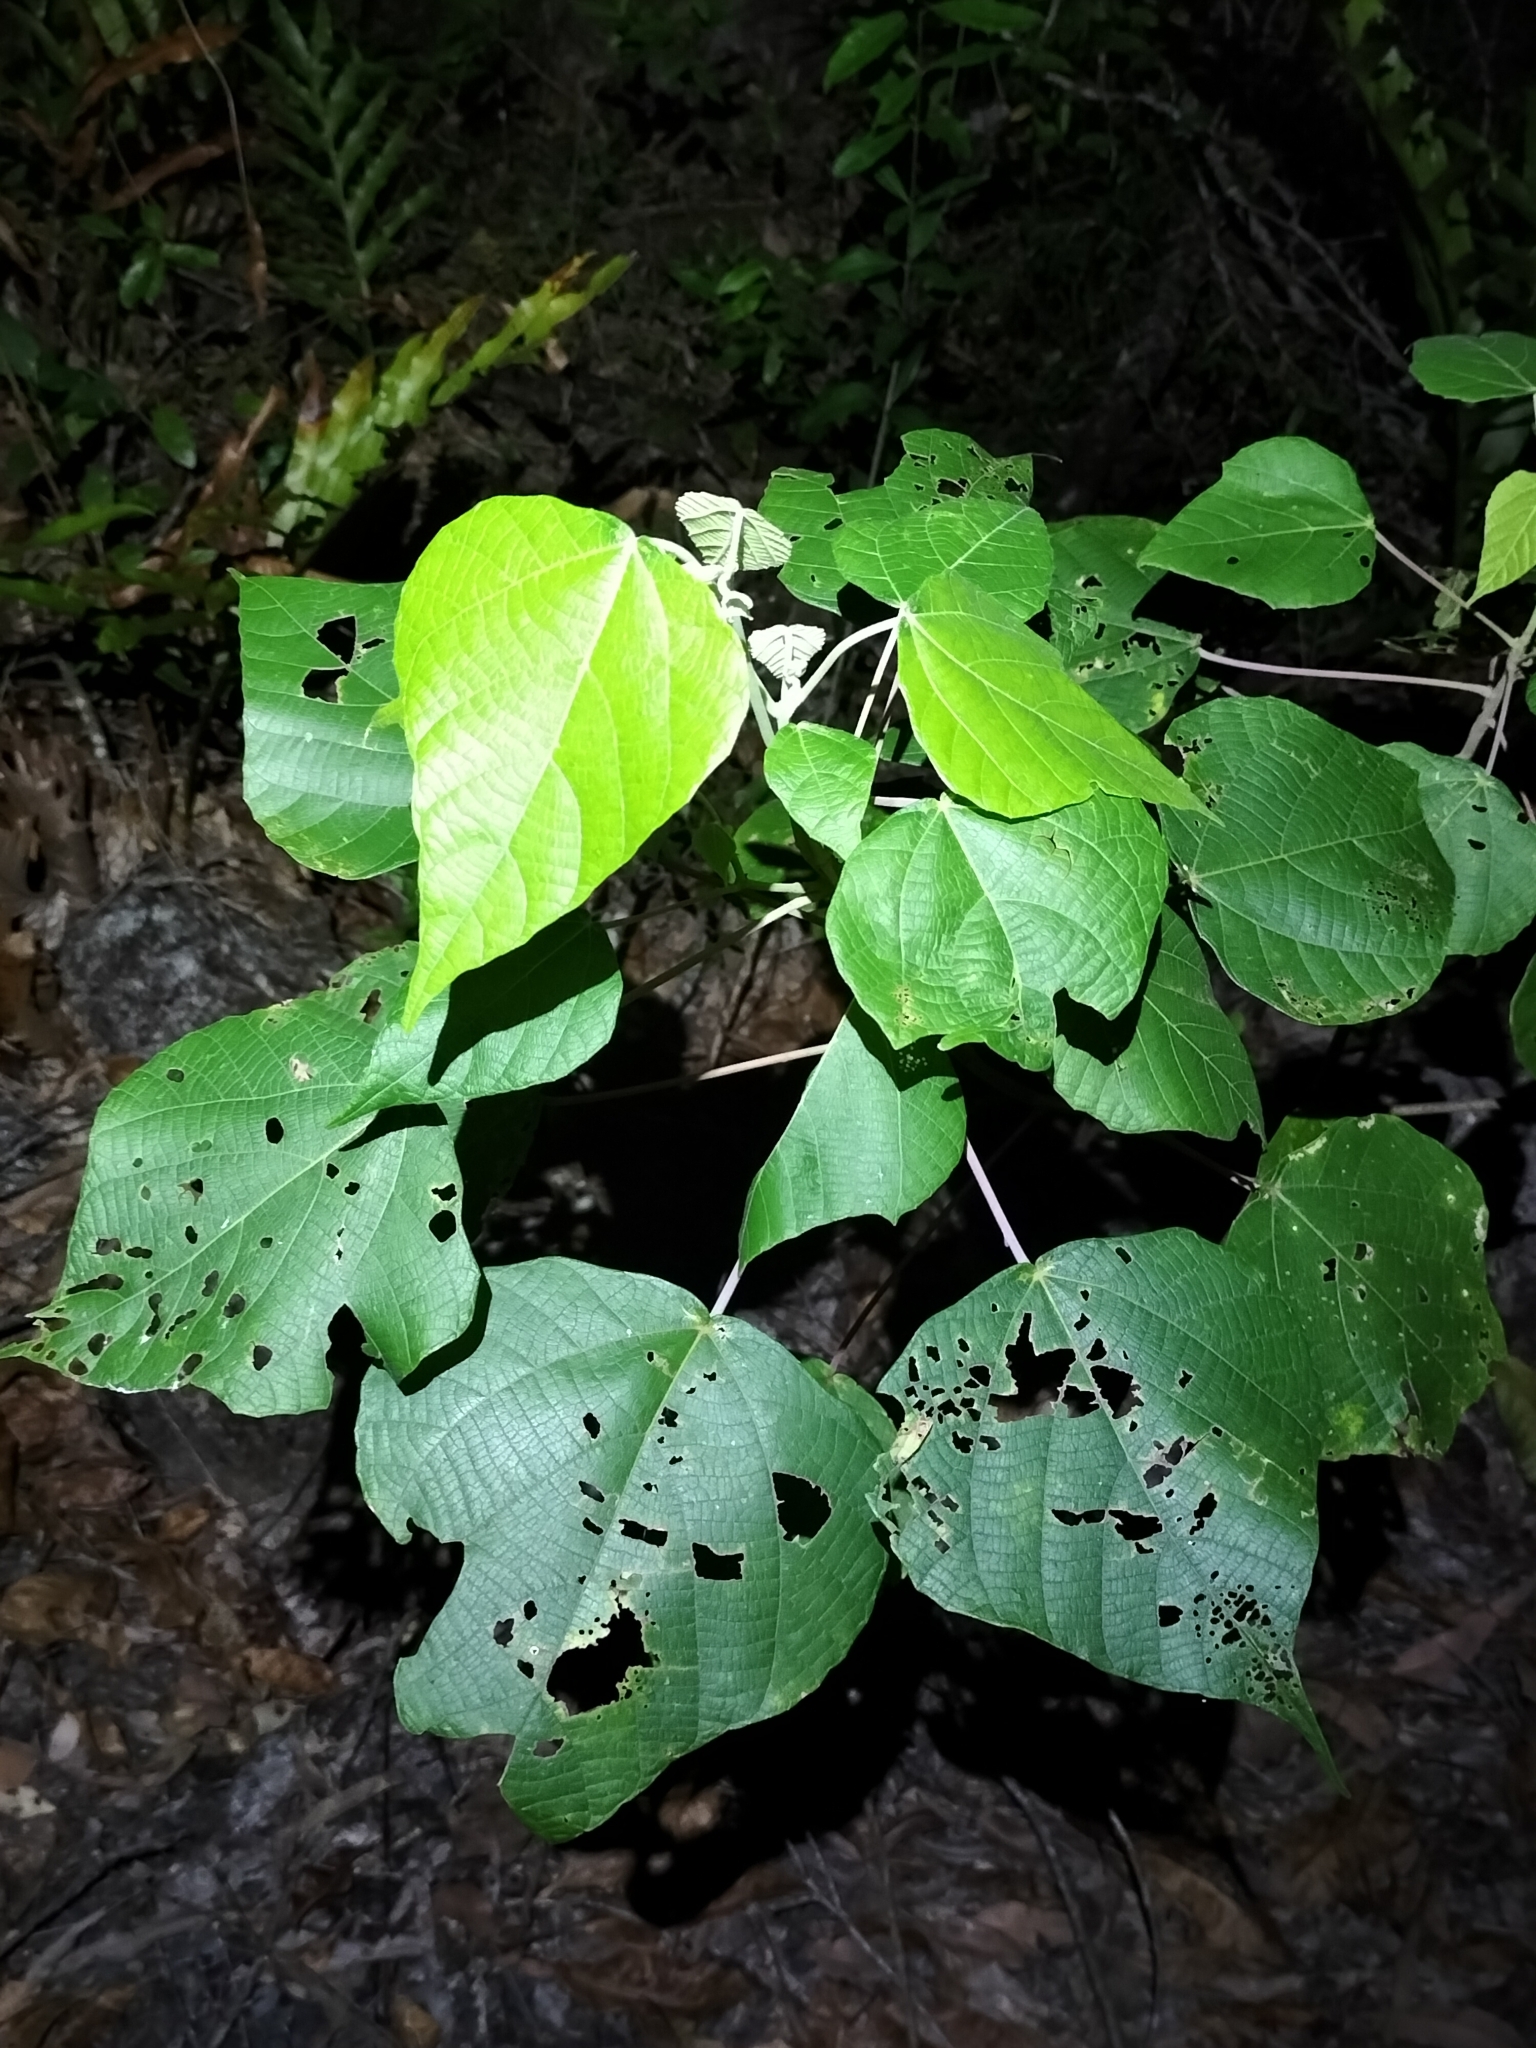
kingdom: Plantae
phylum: Tracheophyta
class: Magnoliopsida
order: Malpighiales
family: Euphorbiaceae
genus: Macaranga
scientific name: Macaranga involucrata
